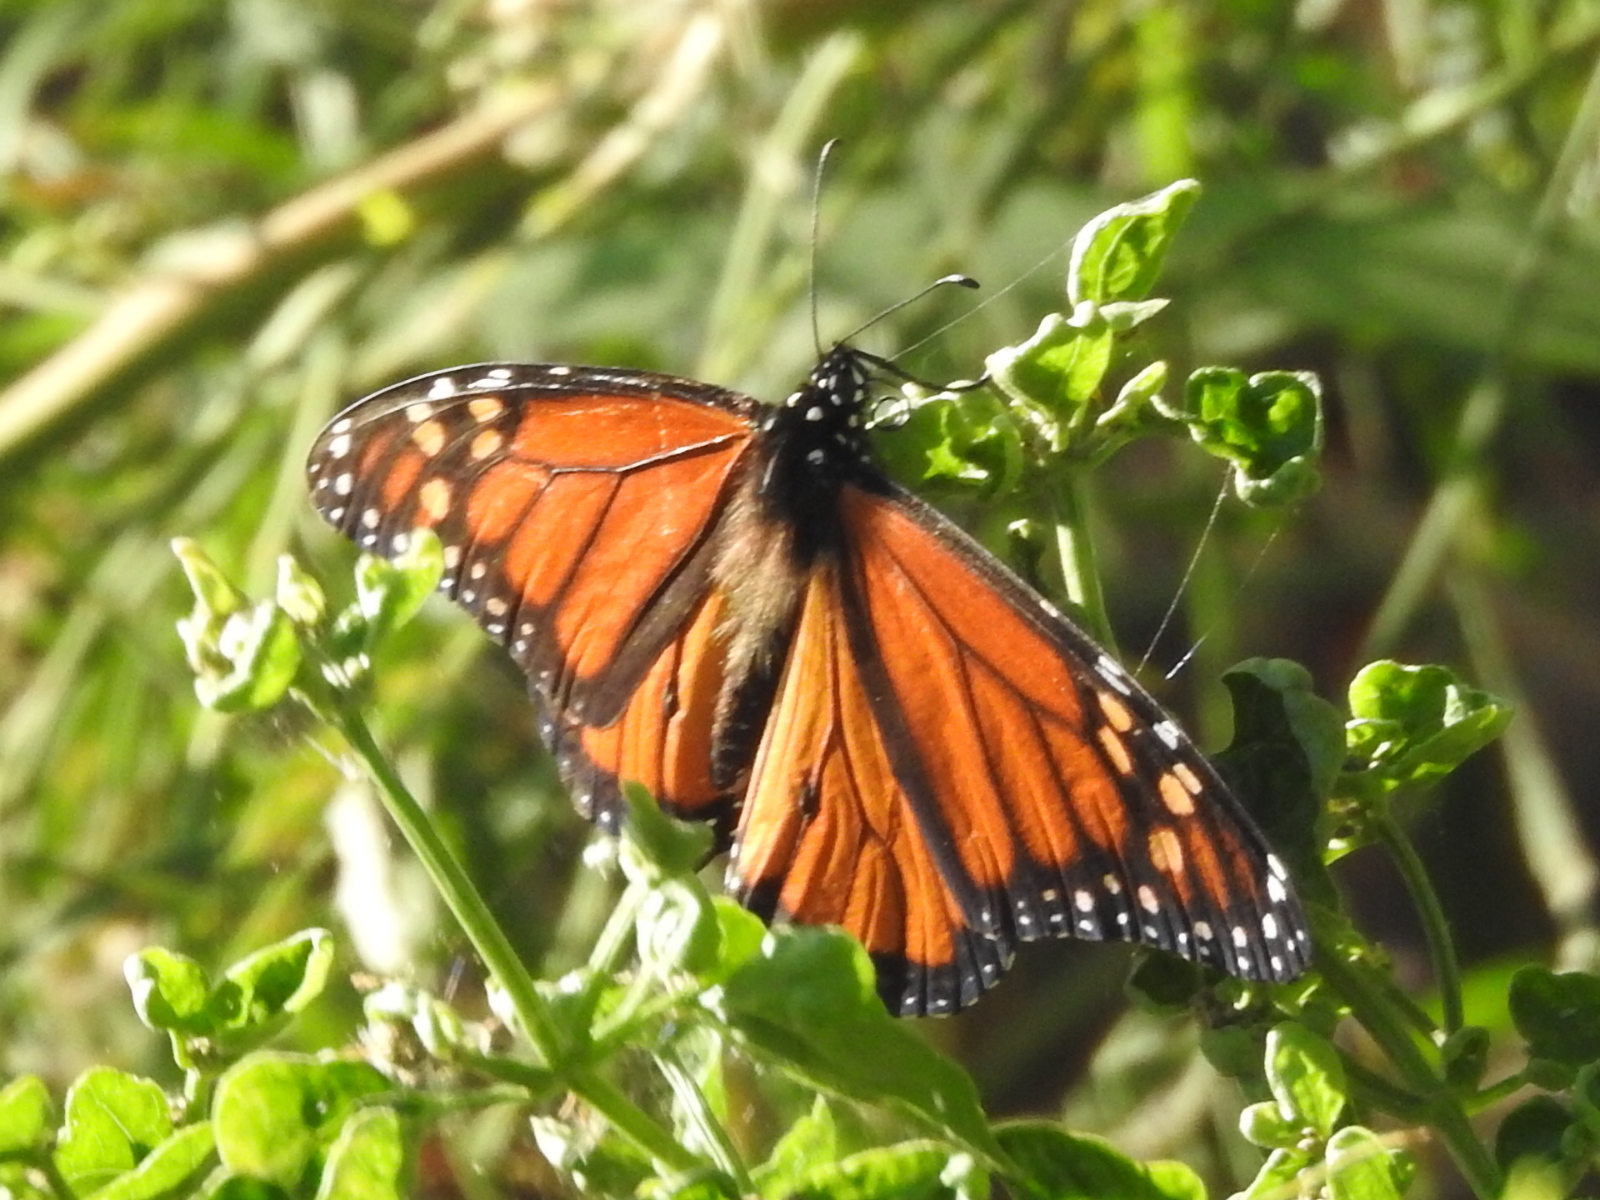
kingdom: Animalia
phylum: Arthropoda
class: Insecta
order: Lepidoptera
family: Nymphalidae
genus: Danaus
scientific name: Danaus plexippus
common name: Monarch
